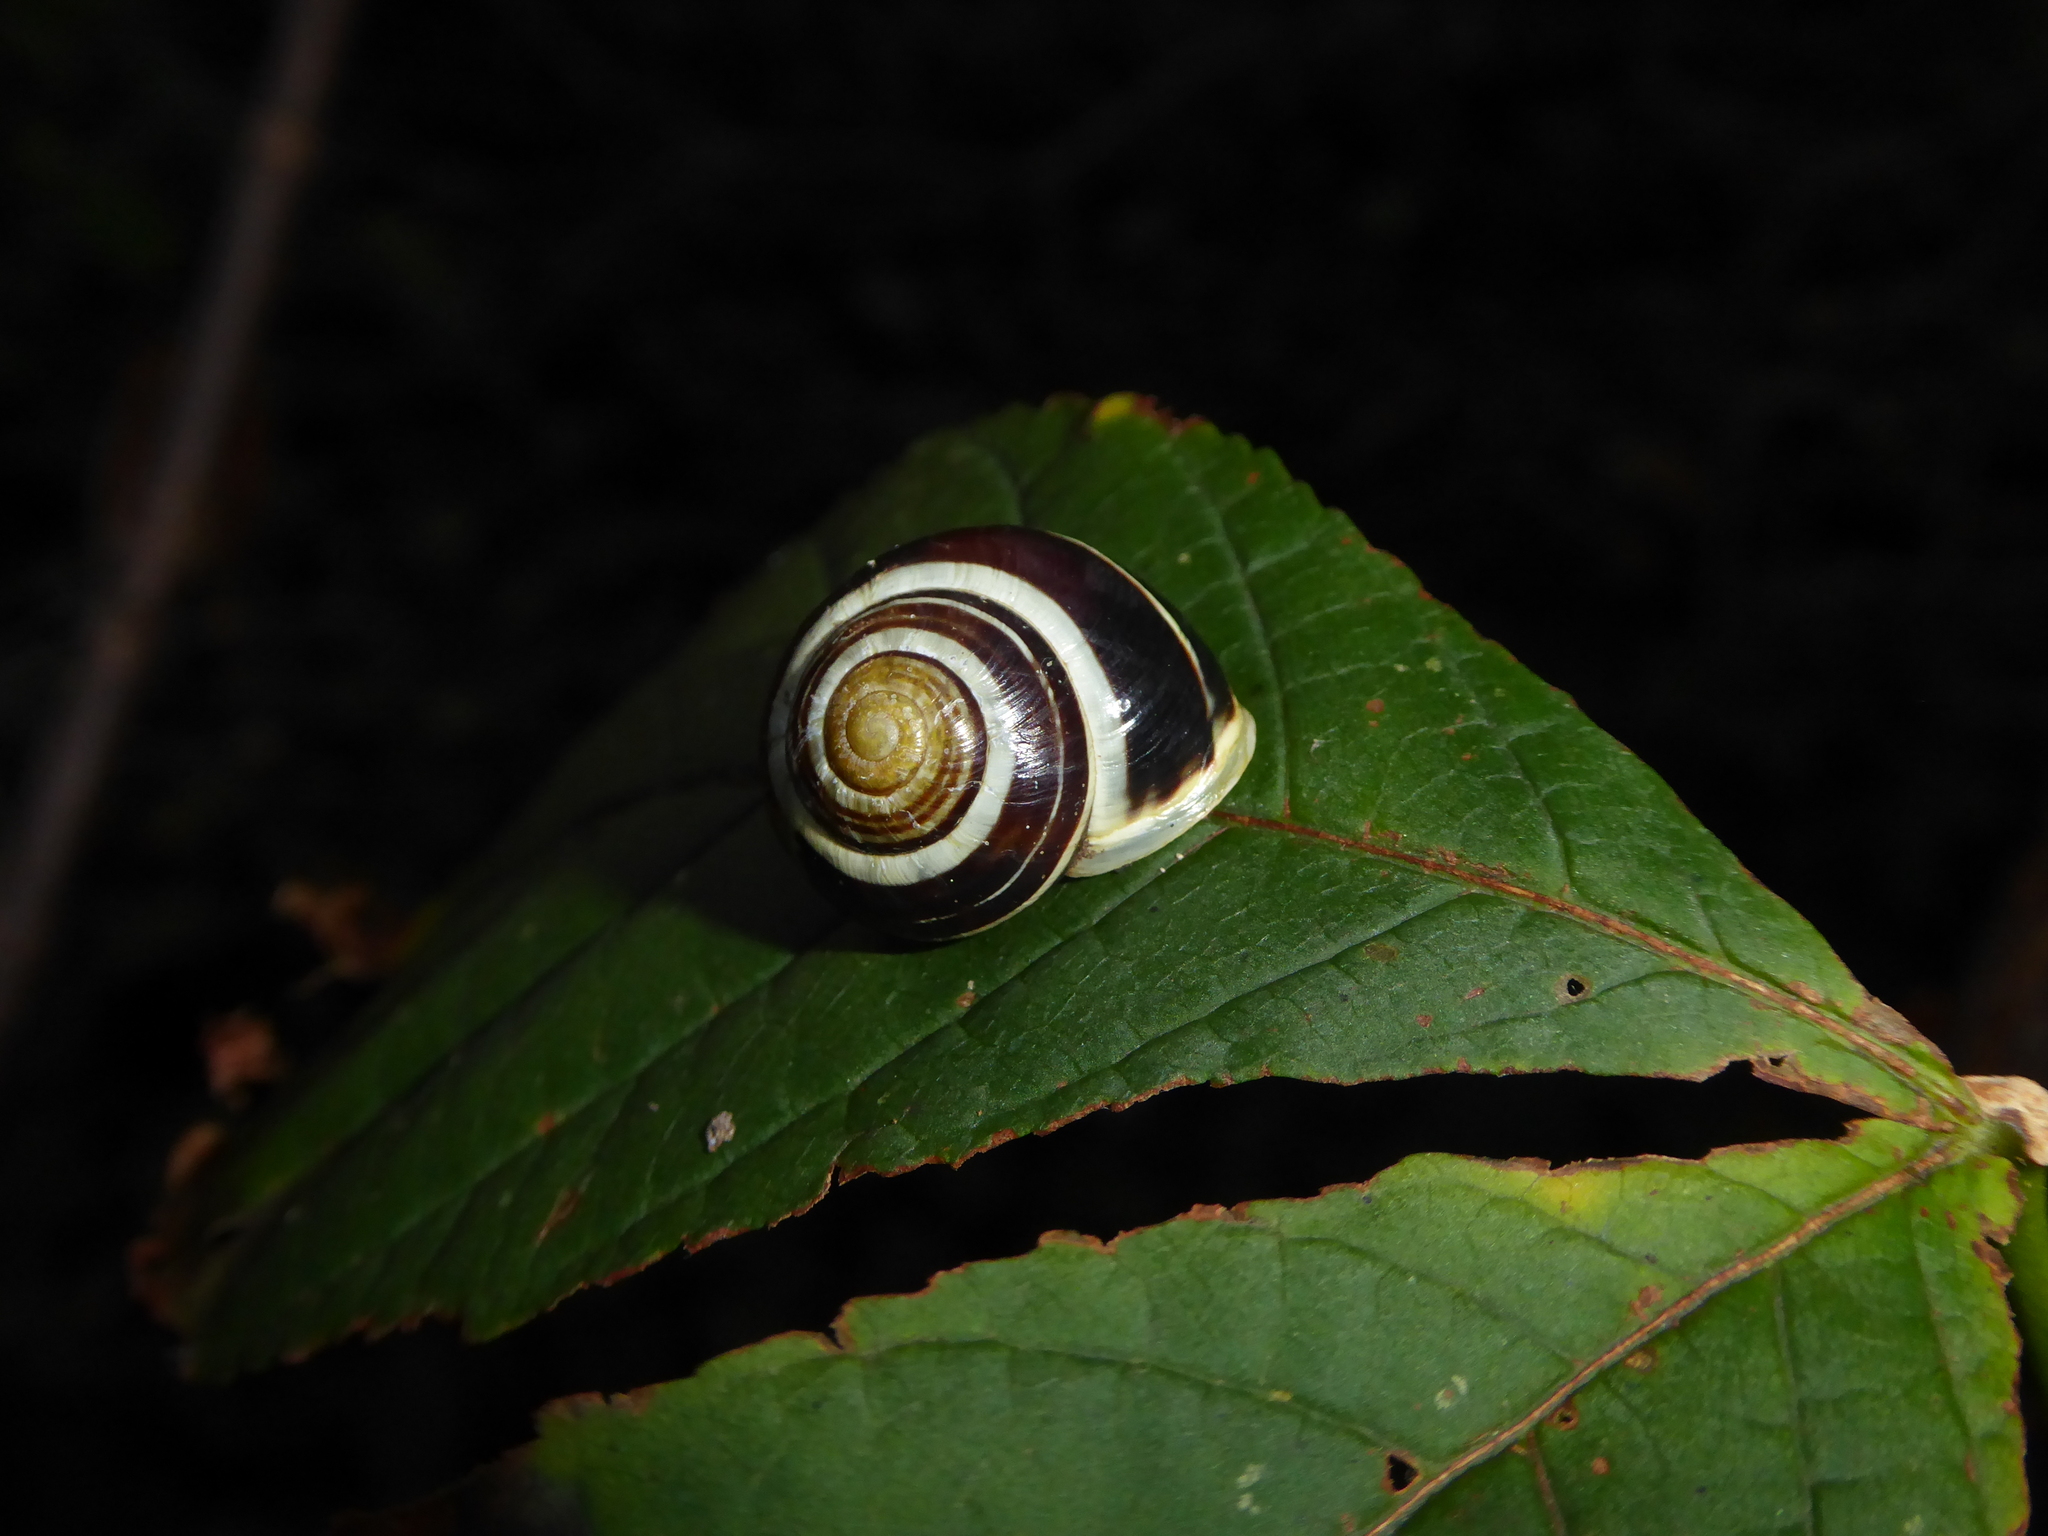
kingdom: Animalia
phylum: Mollusca
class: Gastropoda
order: Stylommatophora
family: Helicidae
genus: Cepaea
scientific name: Cepaea hortensis
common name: White-lip gardensnail
